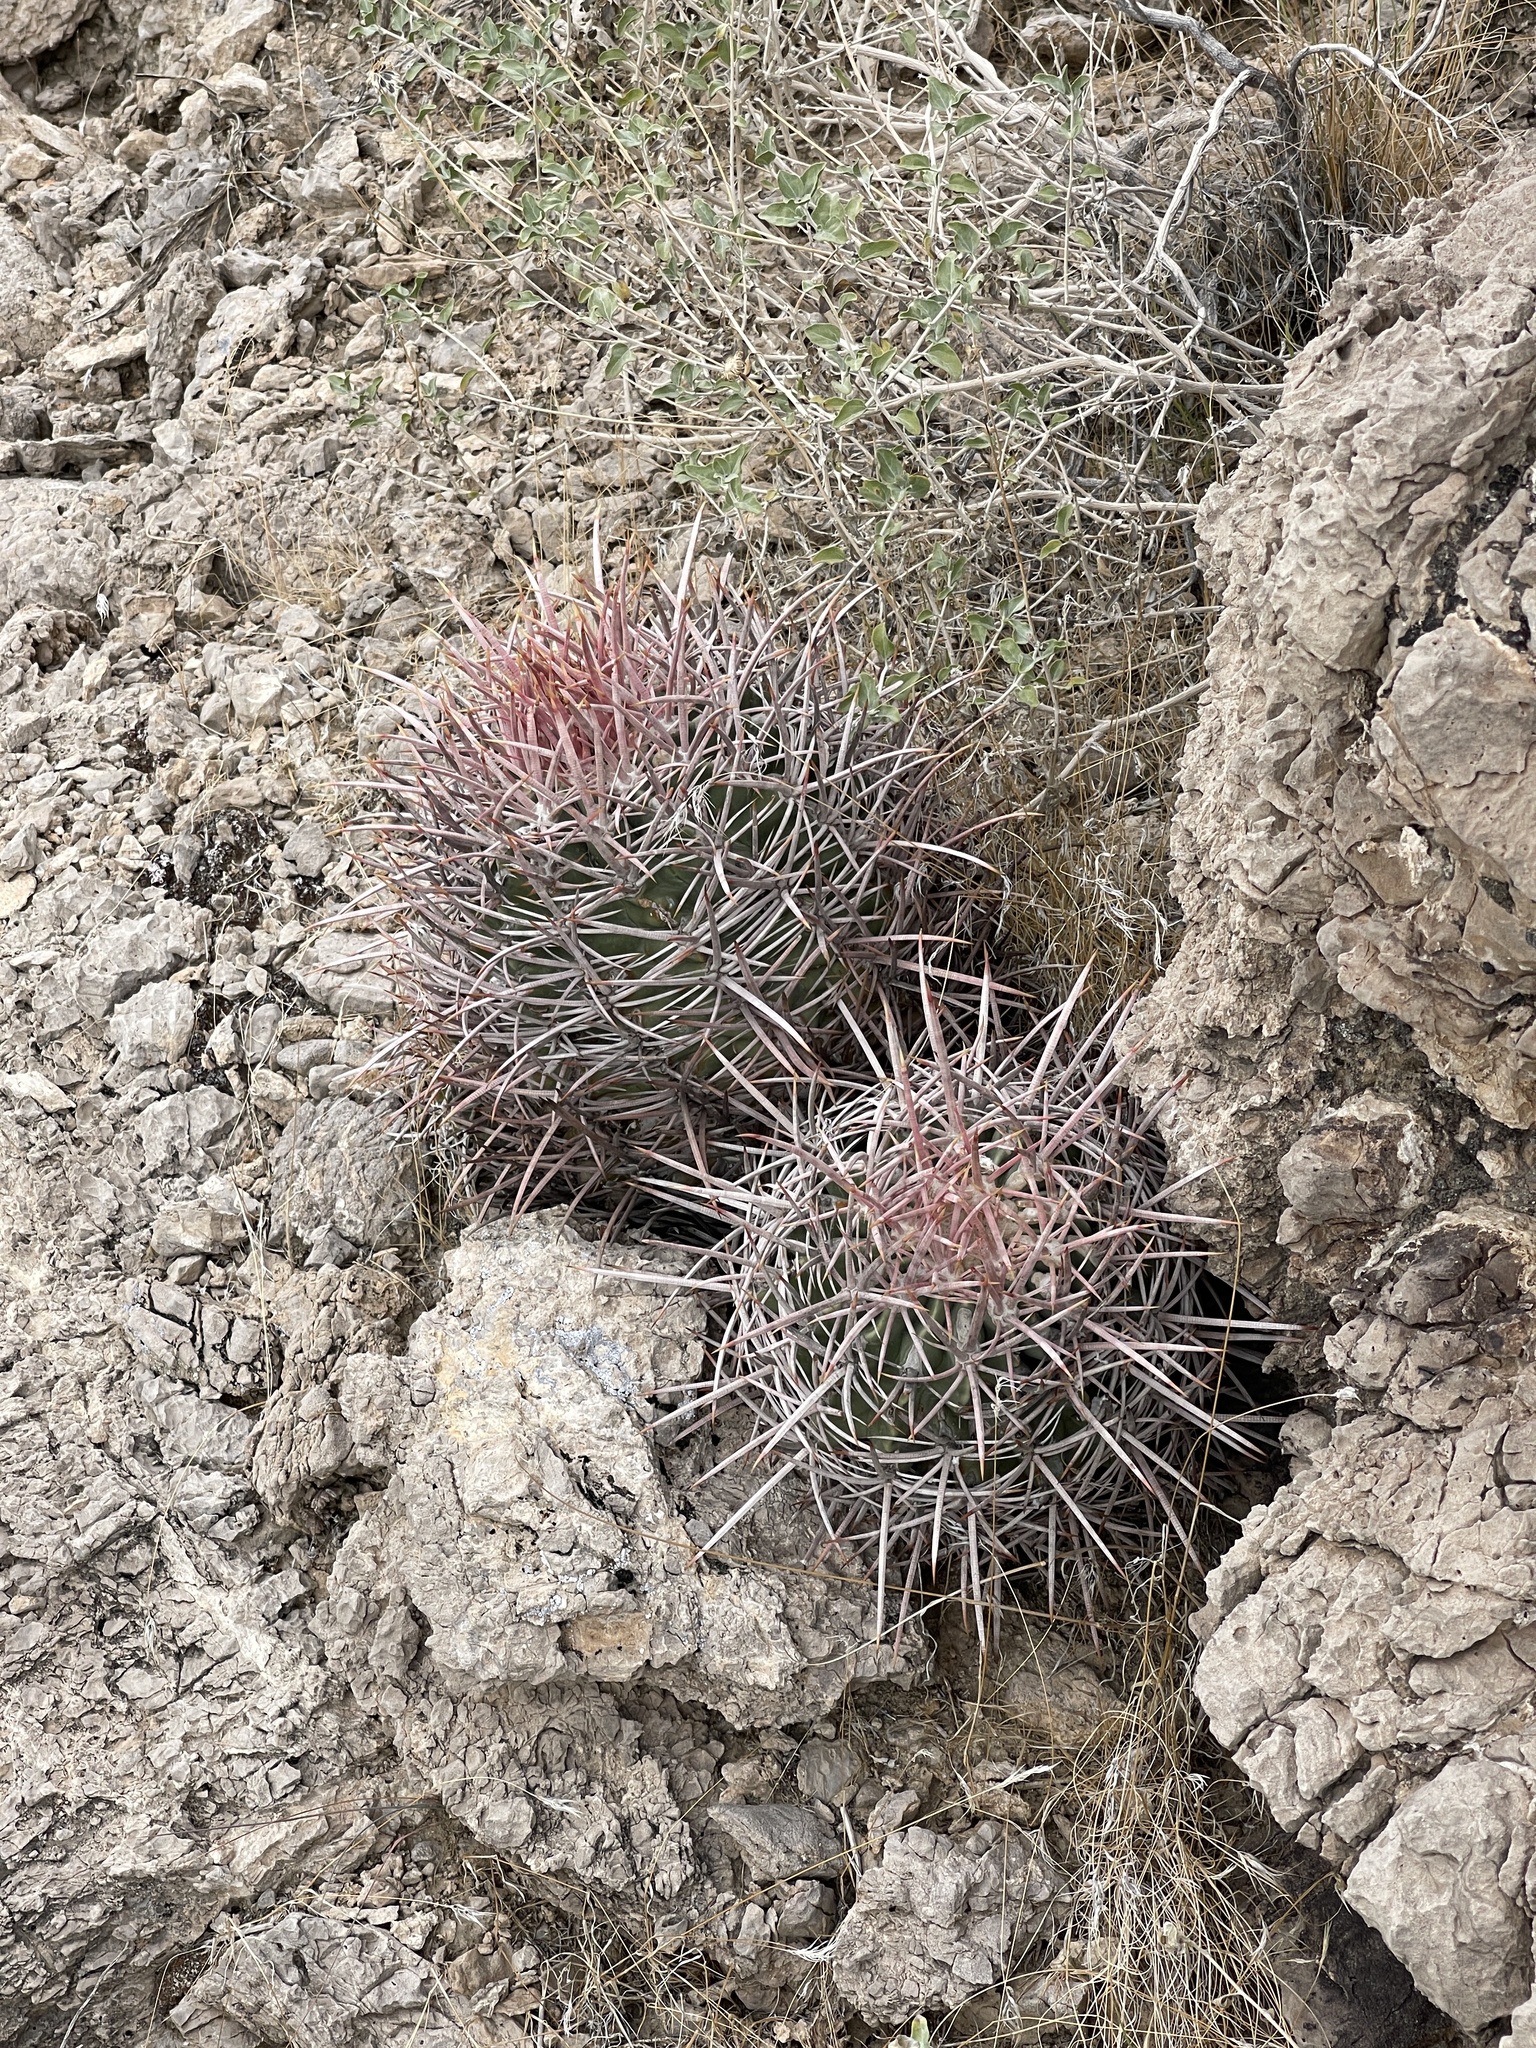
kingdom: Plantae
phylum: Tracheophyta
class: Magnoliopsida
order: Caryophyllales
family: Cactaceae
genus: Echinocactus
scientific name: Echinocactus polycephalus
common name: Cottontop cactus
